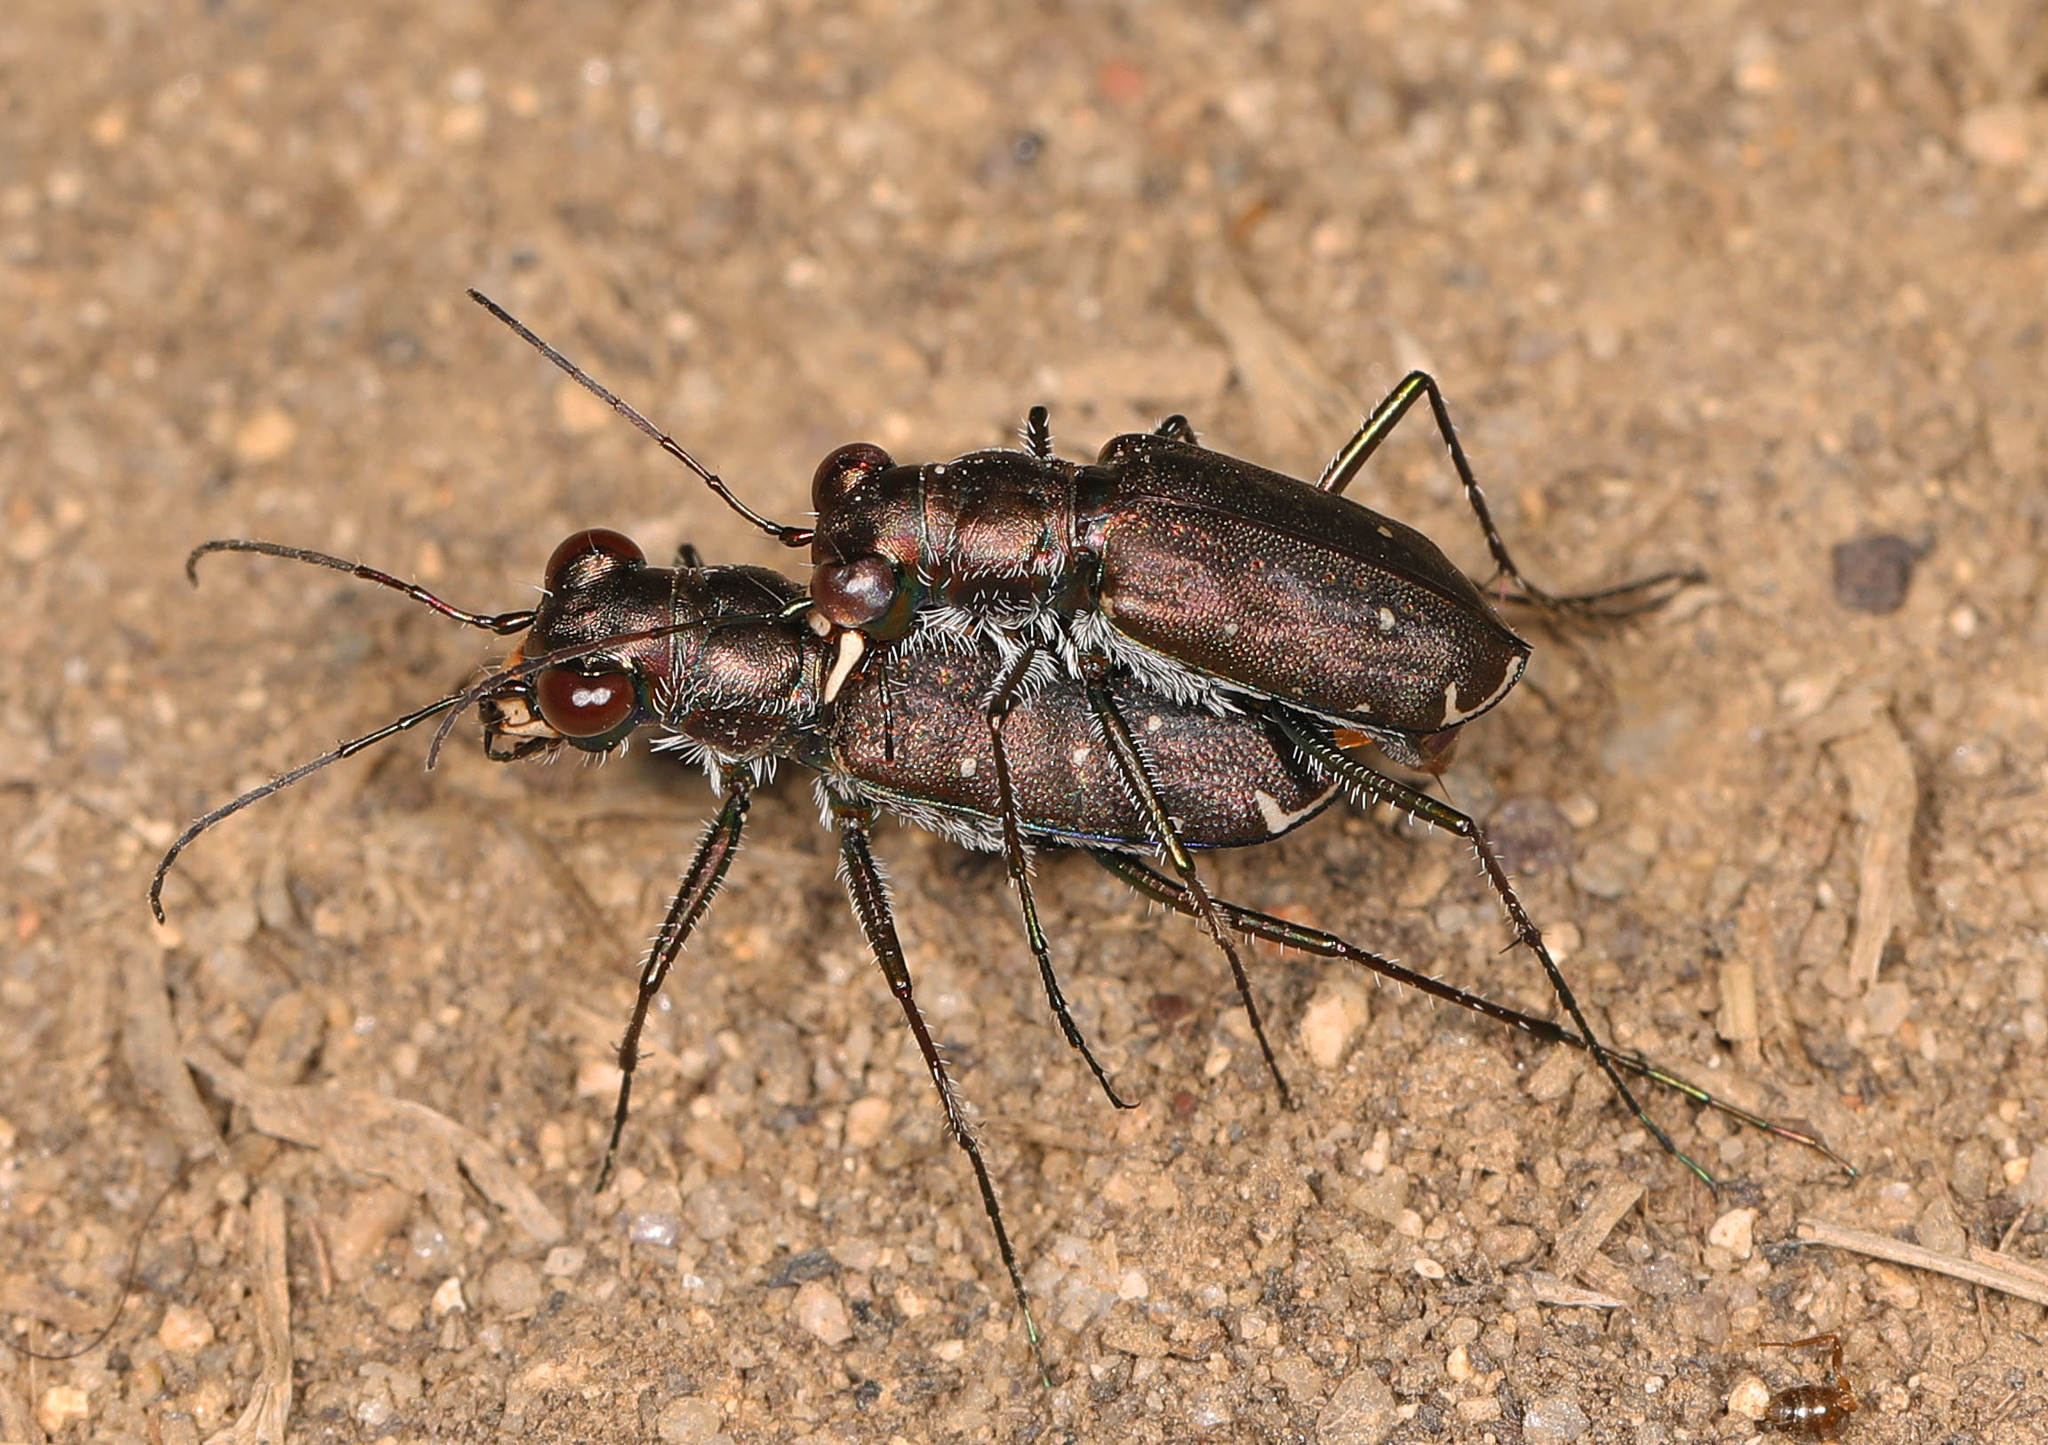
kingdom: Animalia
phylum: Arthropoda
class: Insecta
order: Coleoptera
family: Carabidae
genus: Cicindela
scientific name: Cicindela punctulata
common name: Punctured tiger beetle
